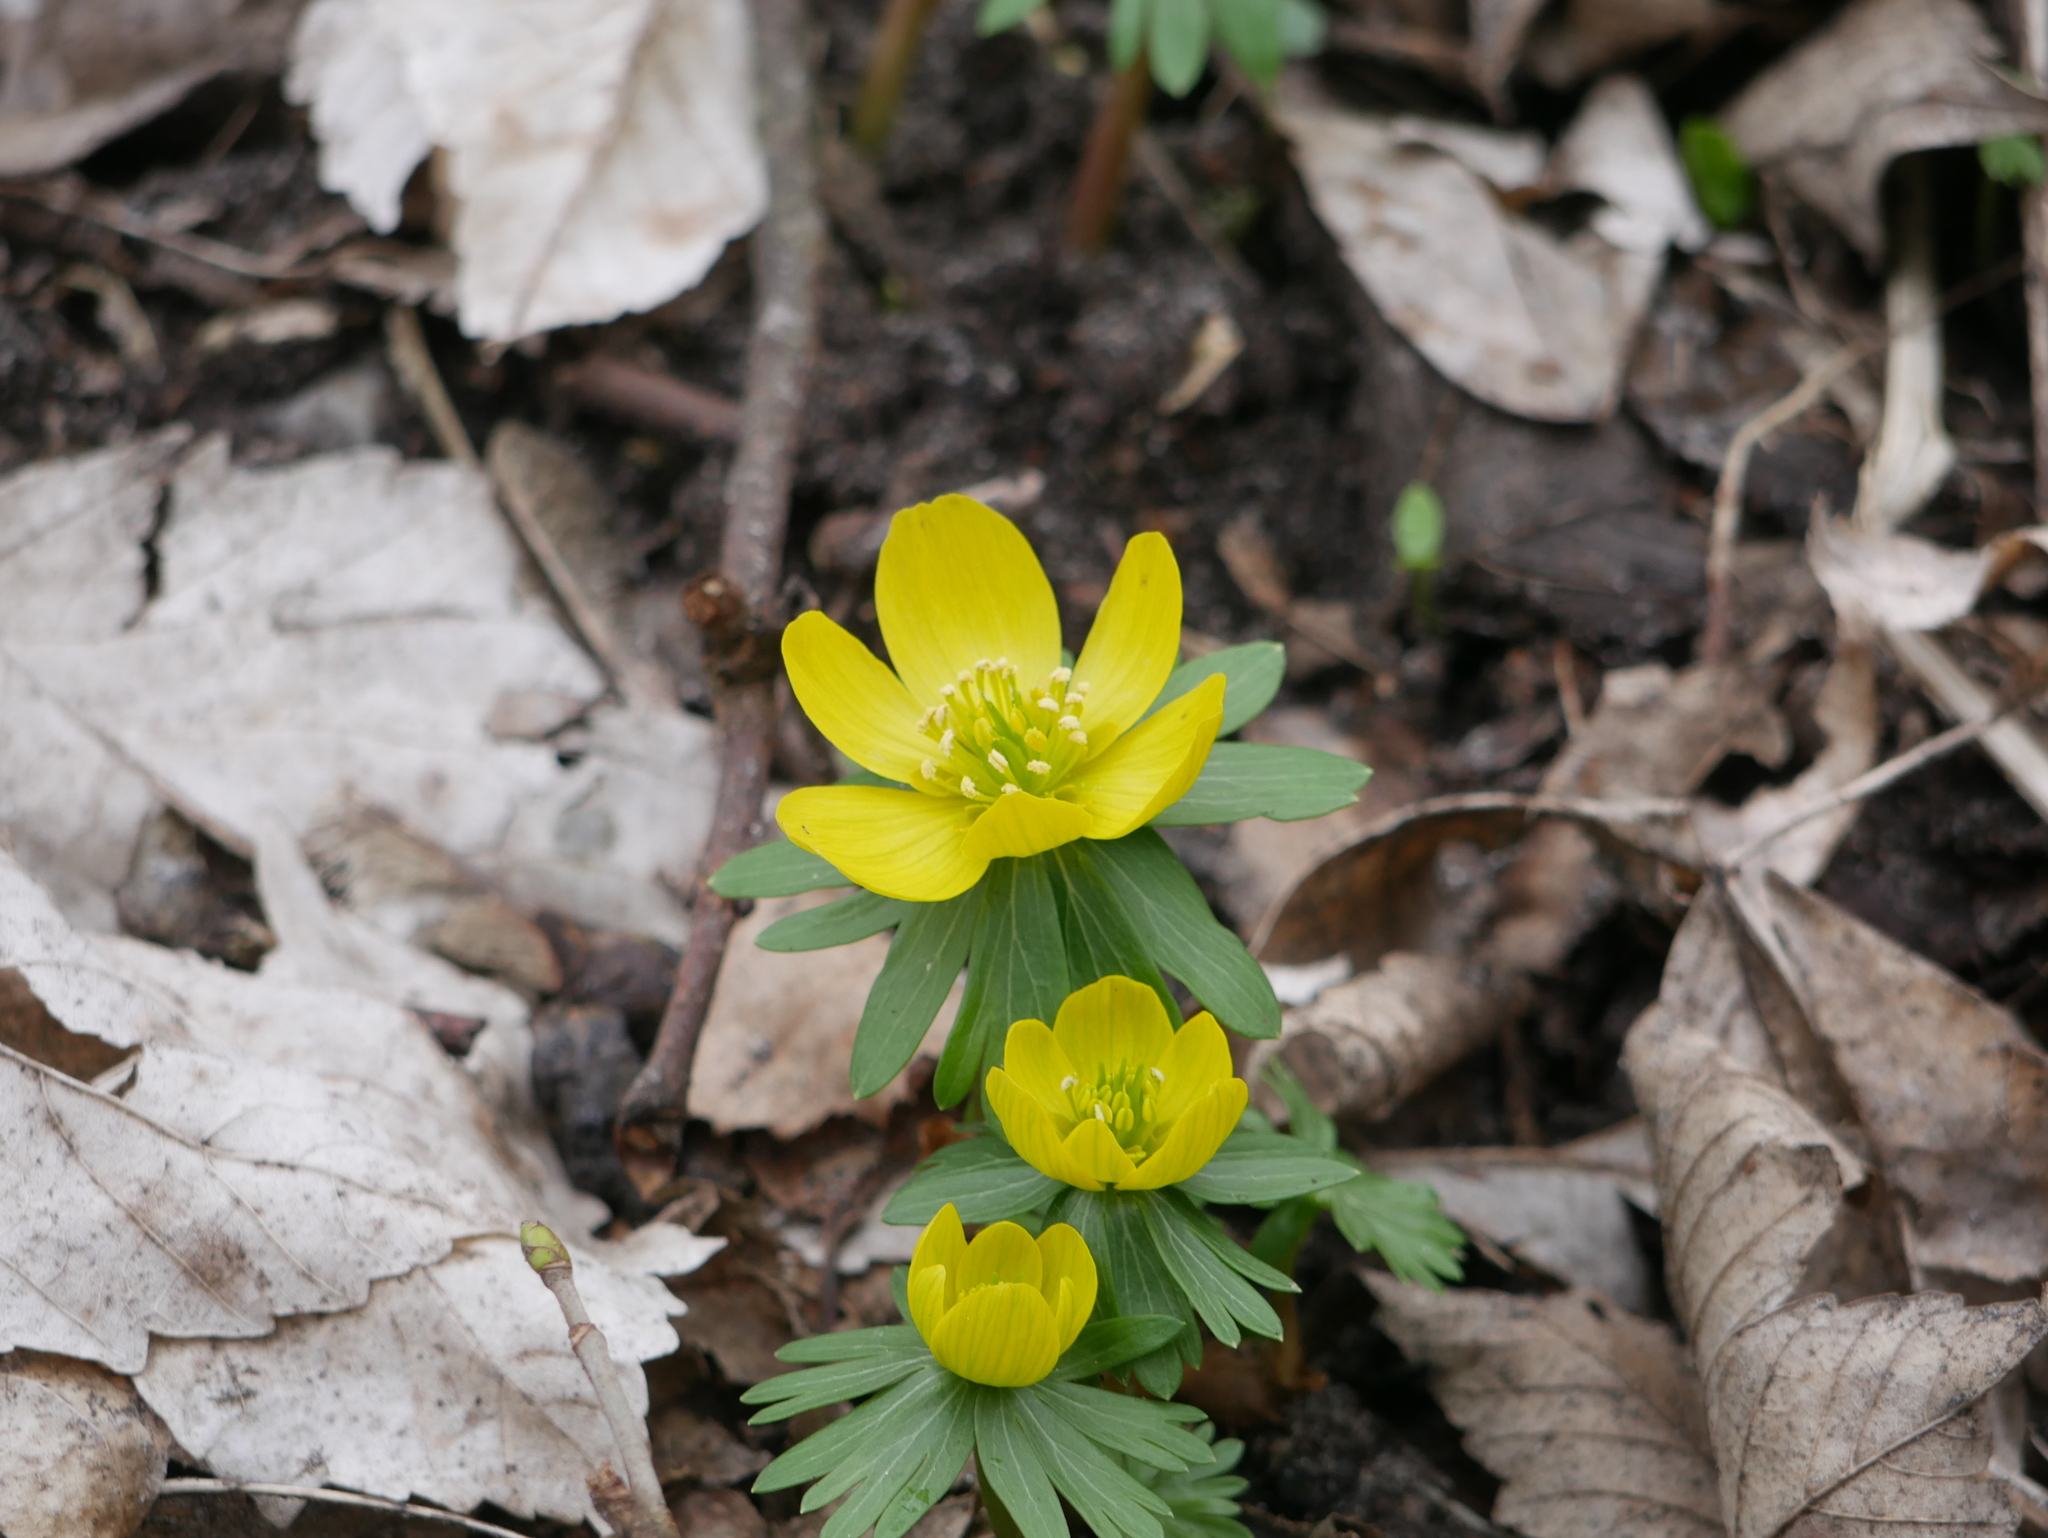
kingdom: Plantae
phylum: Tracheophyta
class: Magnoliopsida
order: Ranunculales
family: Ranunculaceae
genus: Eranthis
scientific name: Eranthis hyemalis
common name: Winter aconite
